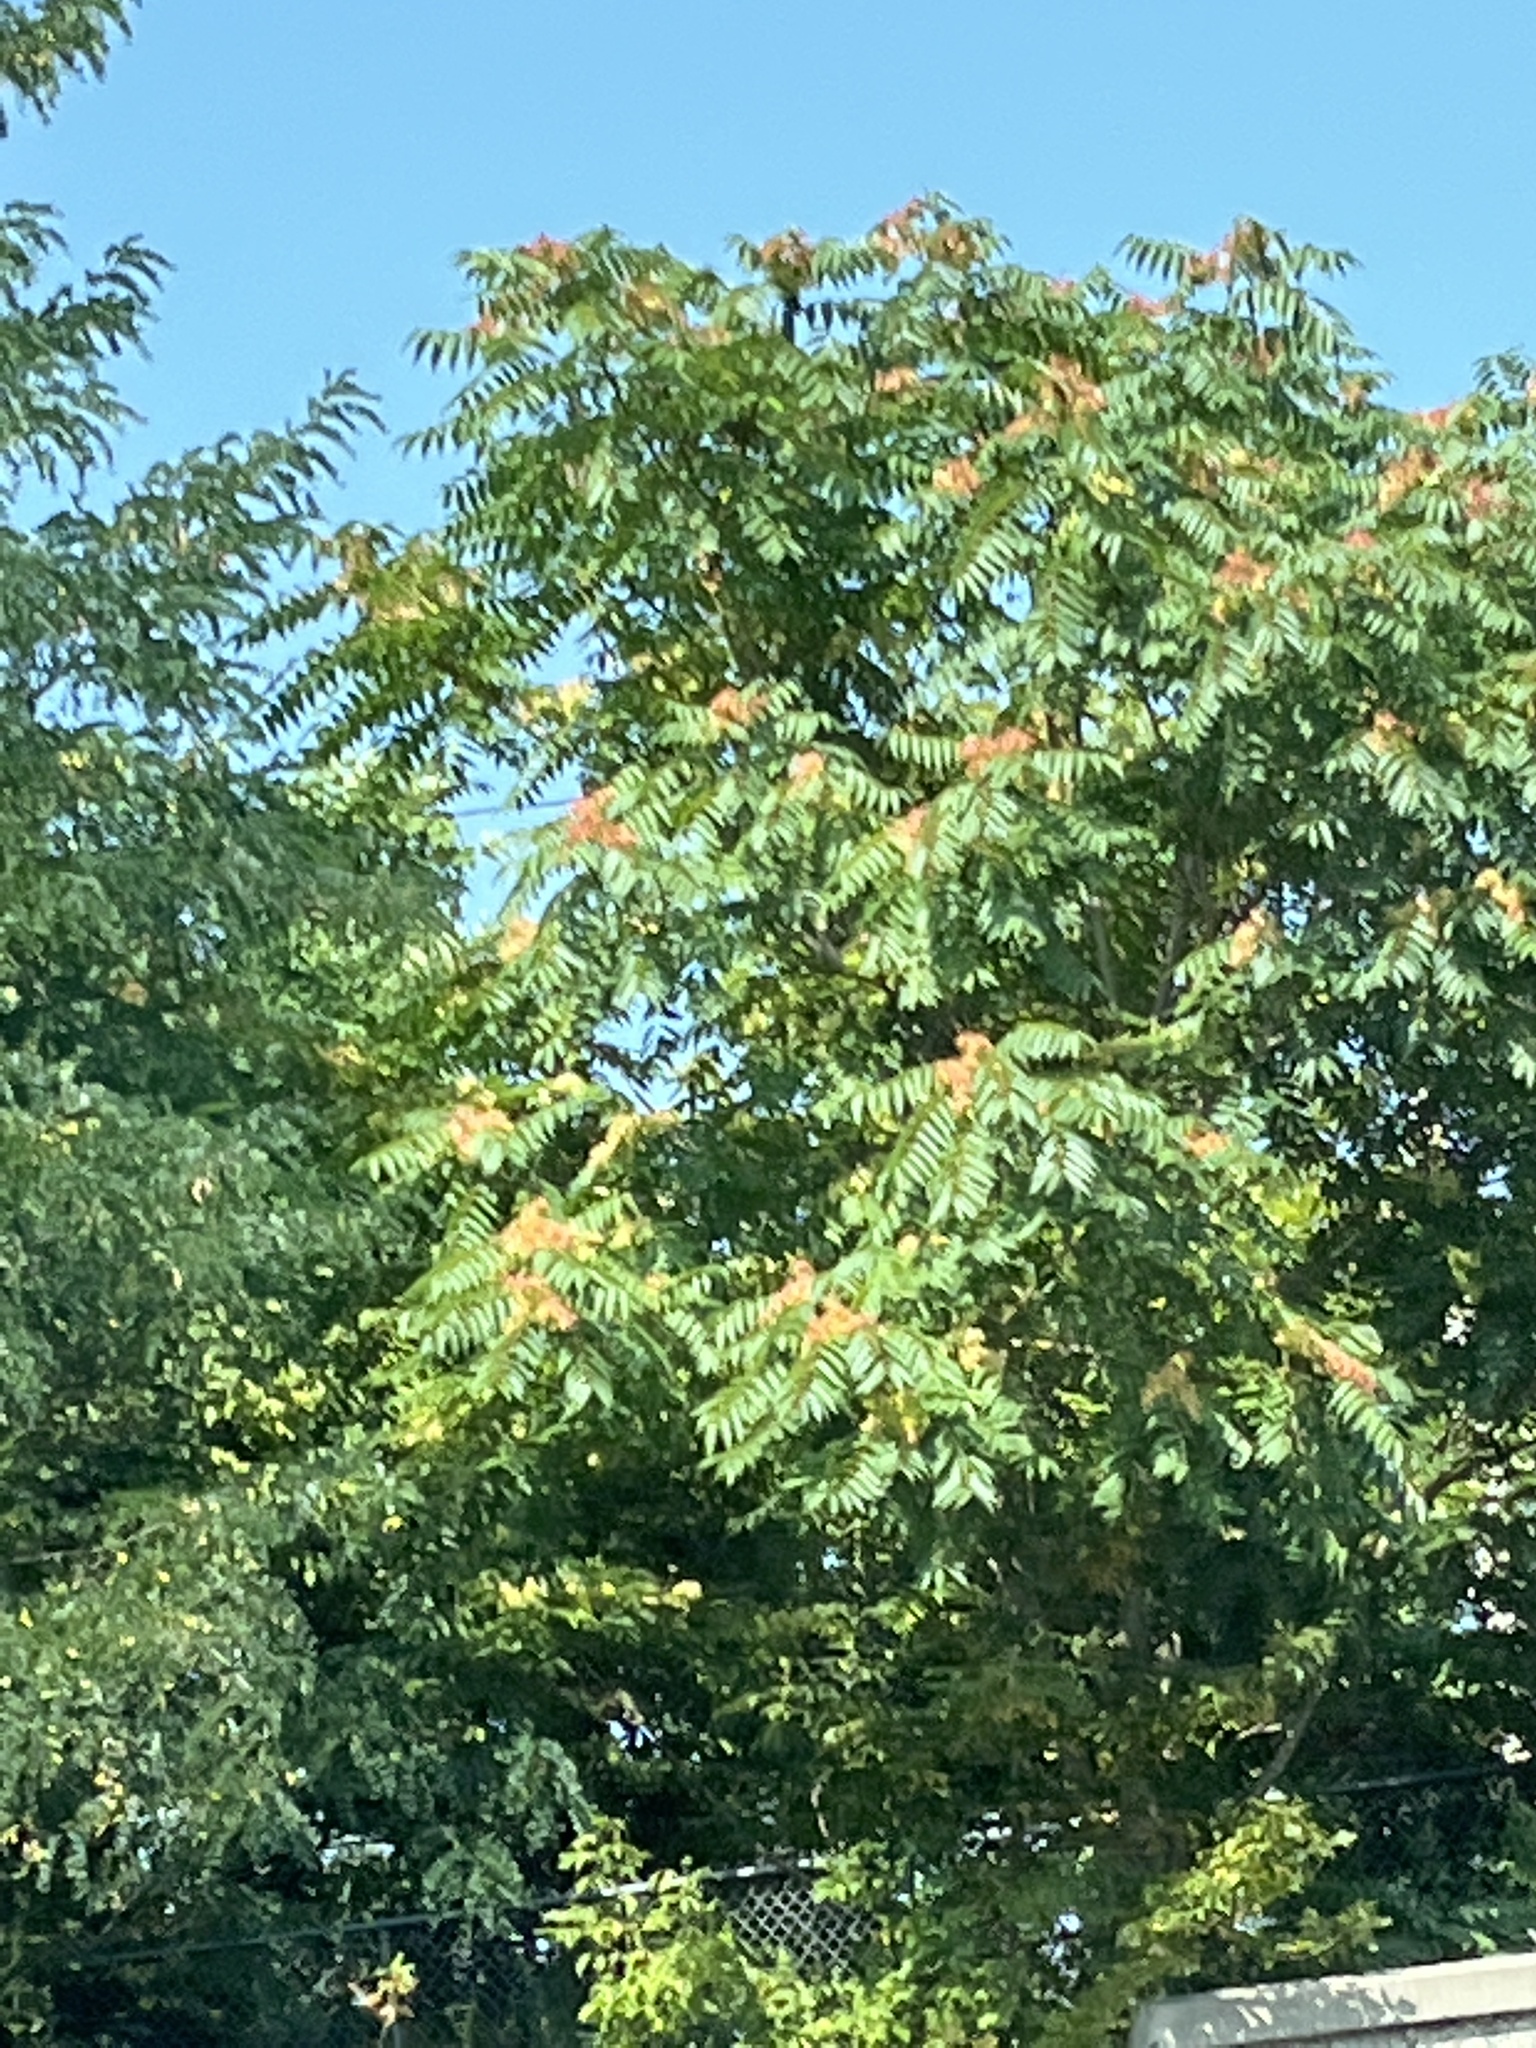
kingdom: Plantae
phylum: Tracheophyta
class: Magnoliopsida
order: Sapindales
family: Simaroubaceae
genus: Ailanthus
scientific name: Ailanthus altissima
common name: Tree-of-heaven
